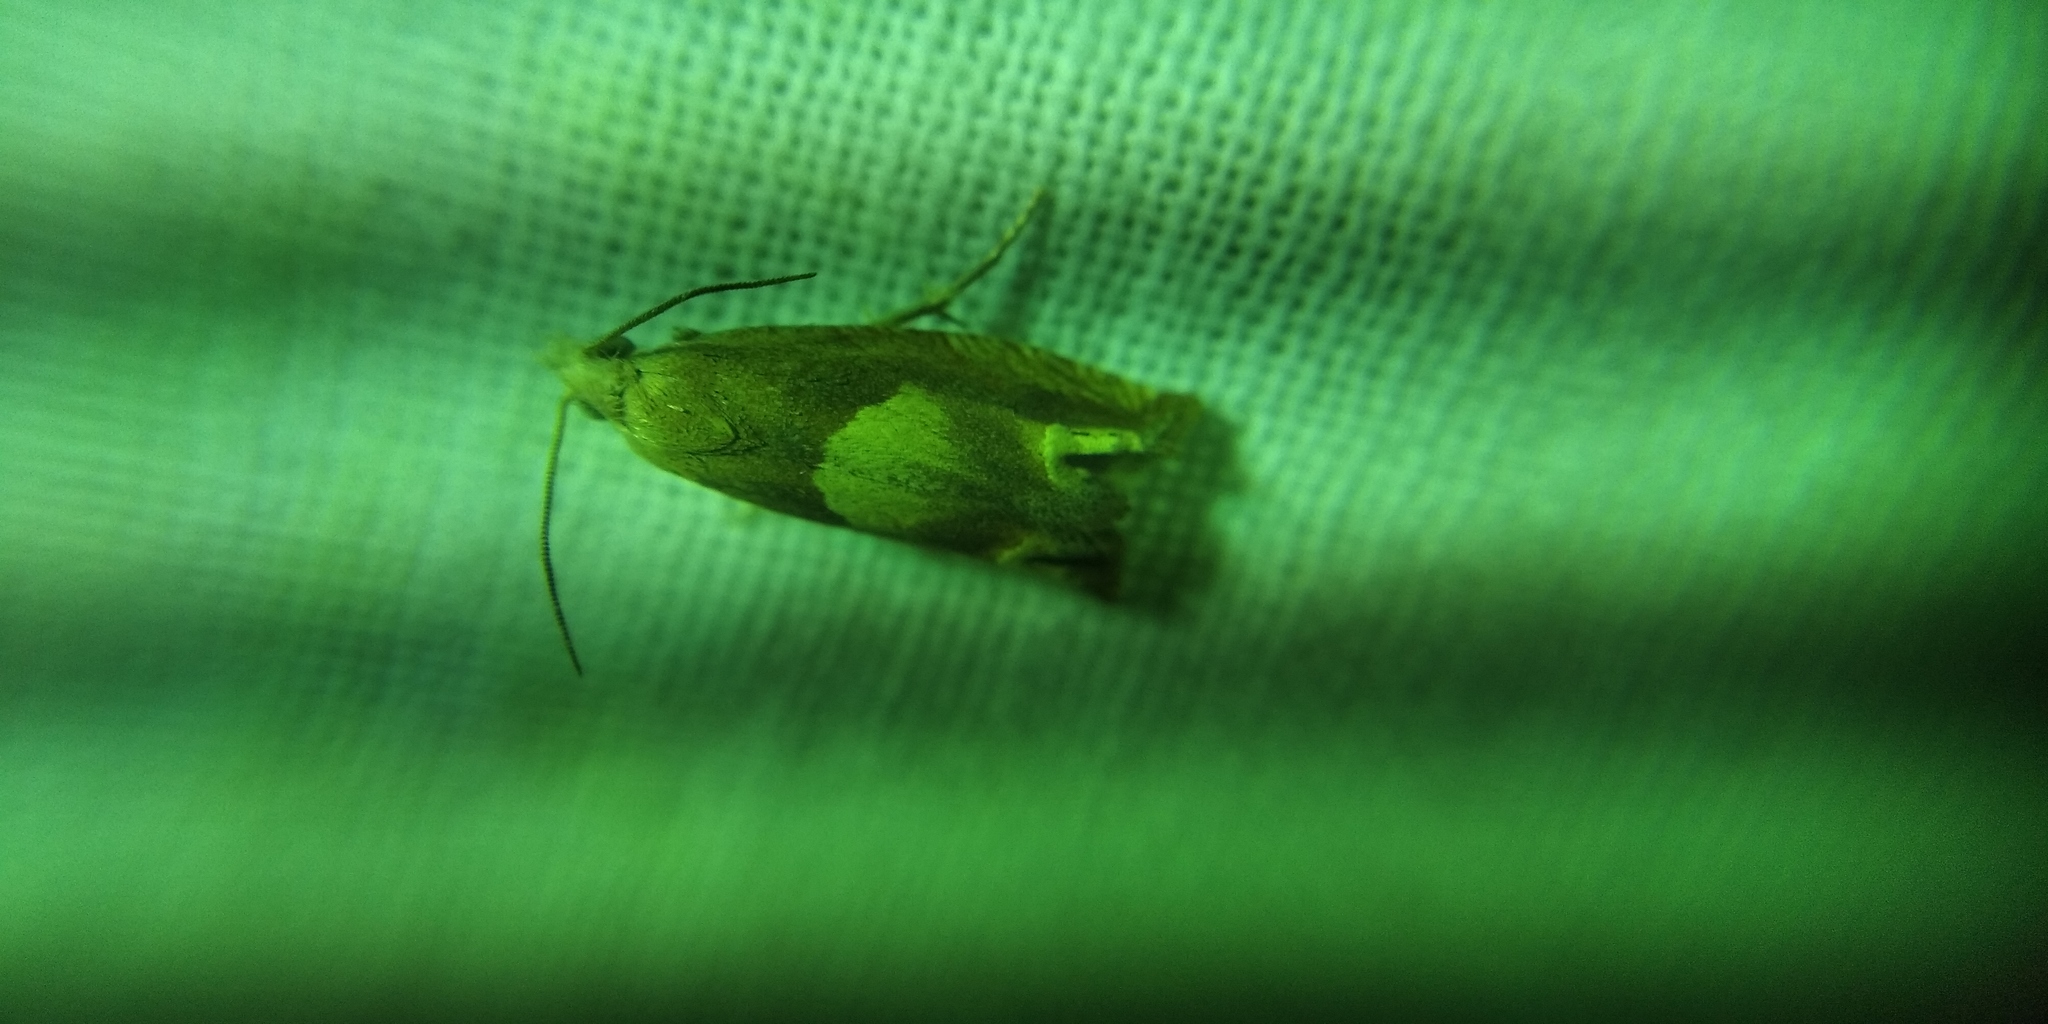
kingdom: Animalia
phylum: Arthropoda
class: Insecta
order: Lepidoptera
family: Tortricidae
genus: Eucosma
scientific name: Eucosma conterminana
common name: Pale lettuce bell
